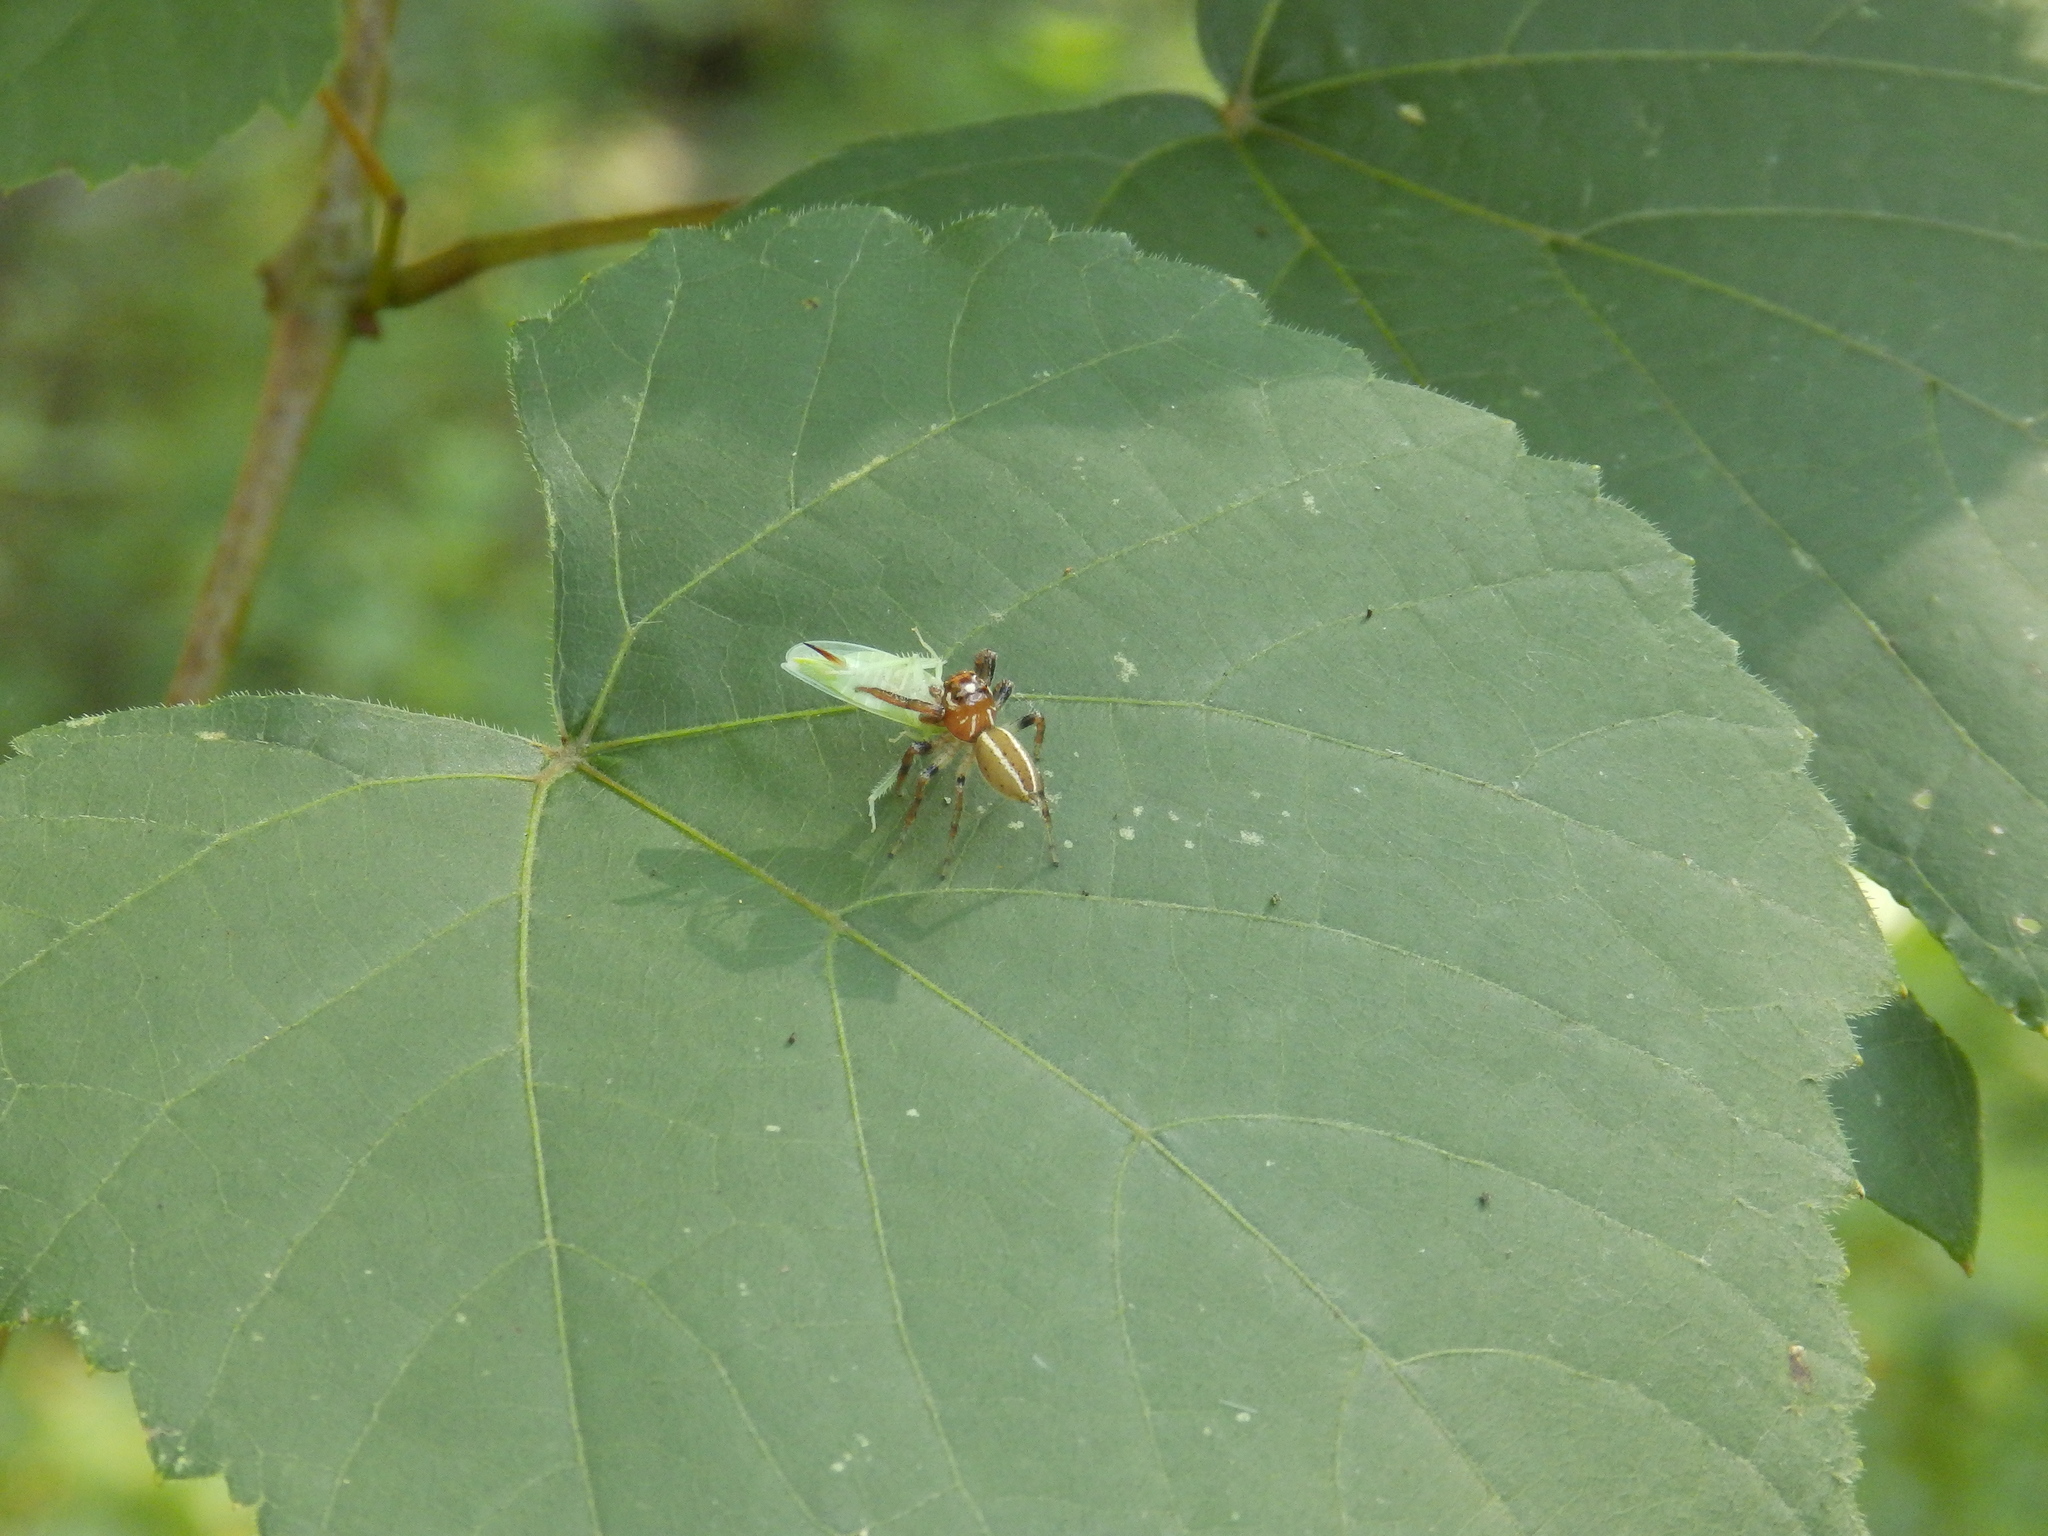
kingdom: Animalia
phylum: Arthropoda
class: Arachnida
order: Araneae
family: Salticidae
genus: Colonus
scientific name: Colonus sylvanus
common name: Jumping spiders
